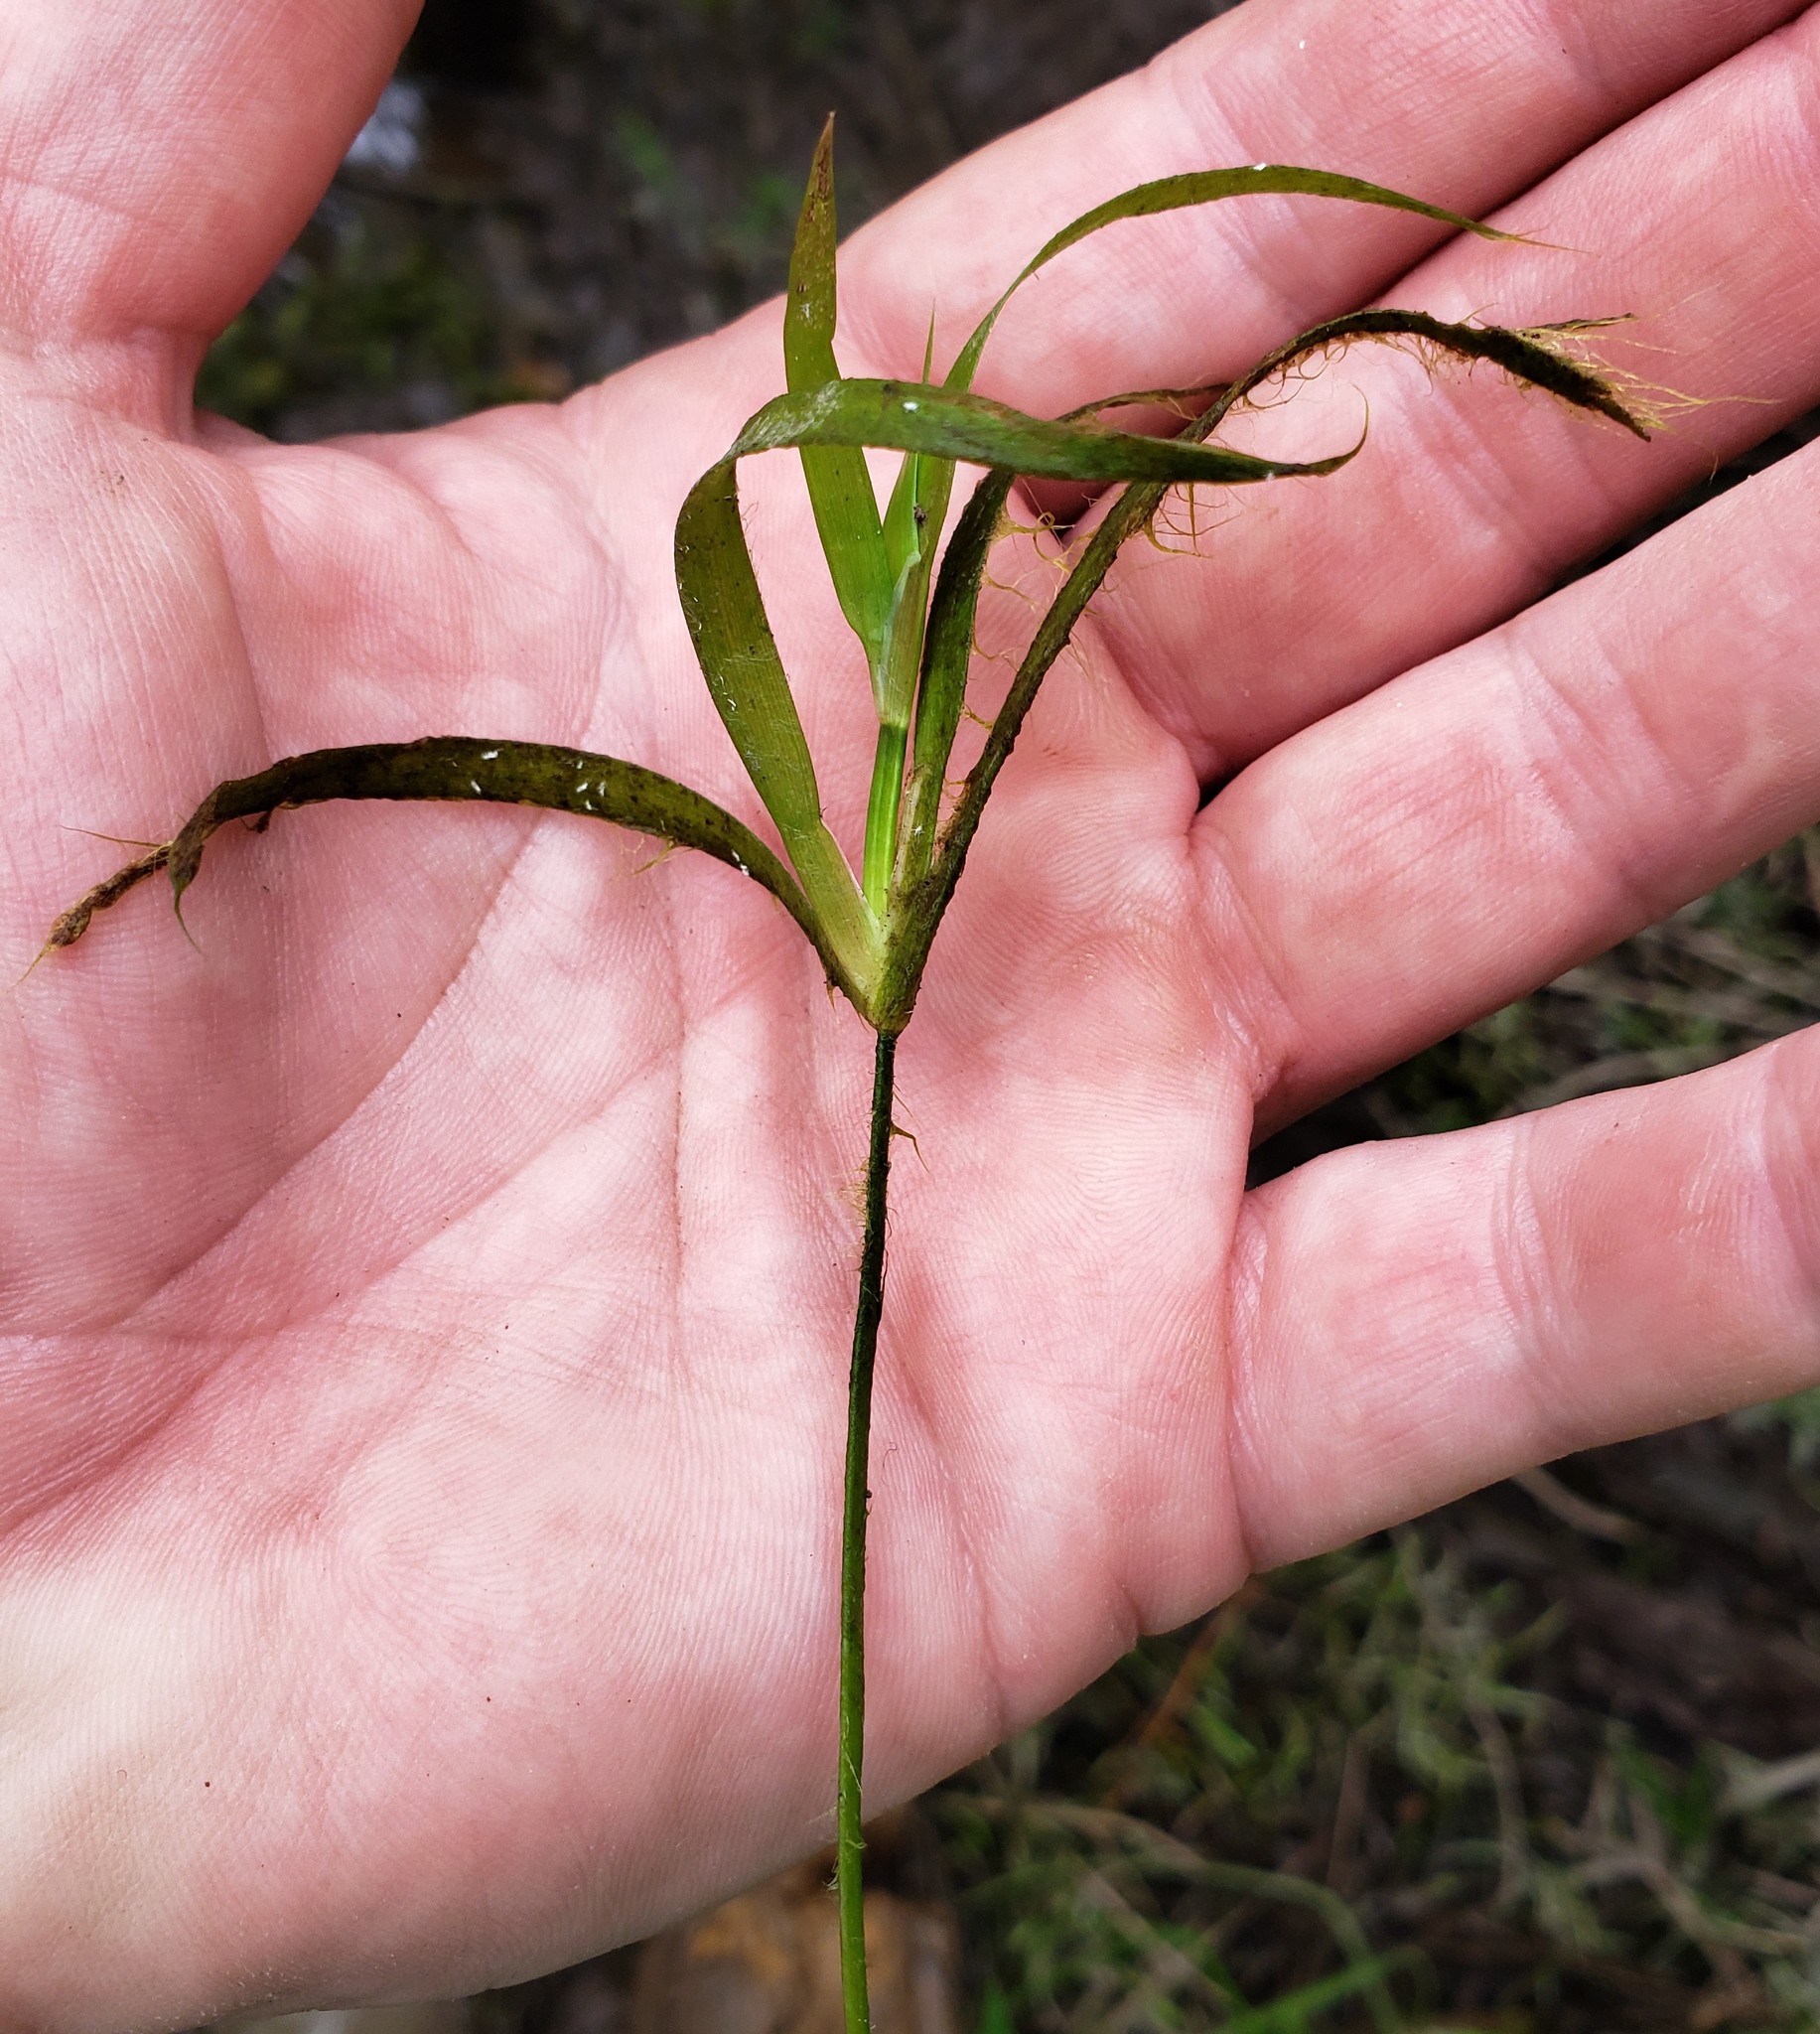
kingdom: Plantae
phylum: Tracheophyta
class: Liliopsida
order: Poales
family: Juncaceae
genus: Juncus
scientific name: Juncus repens
